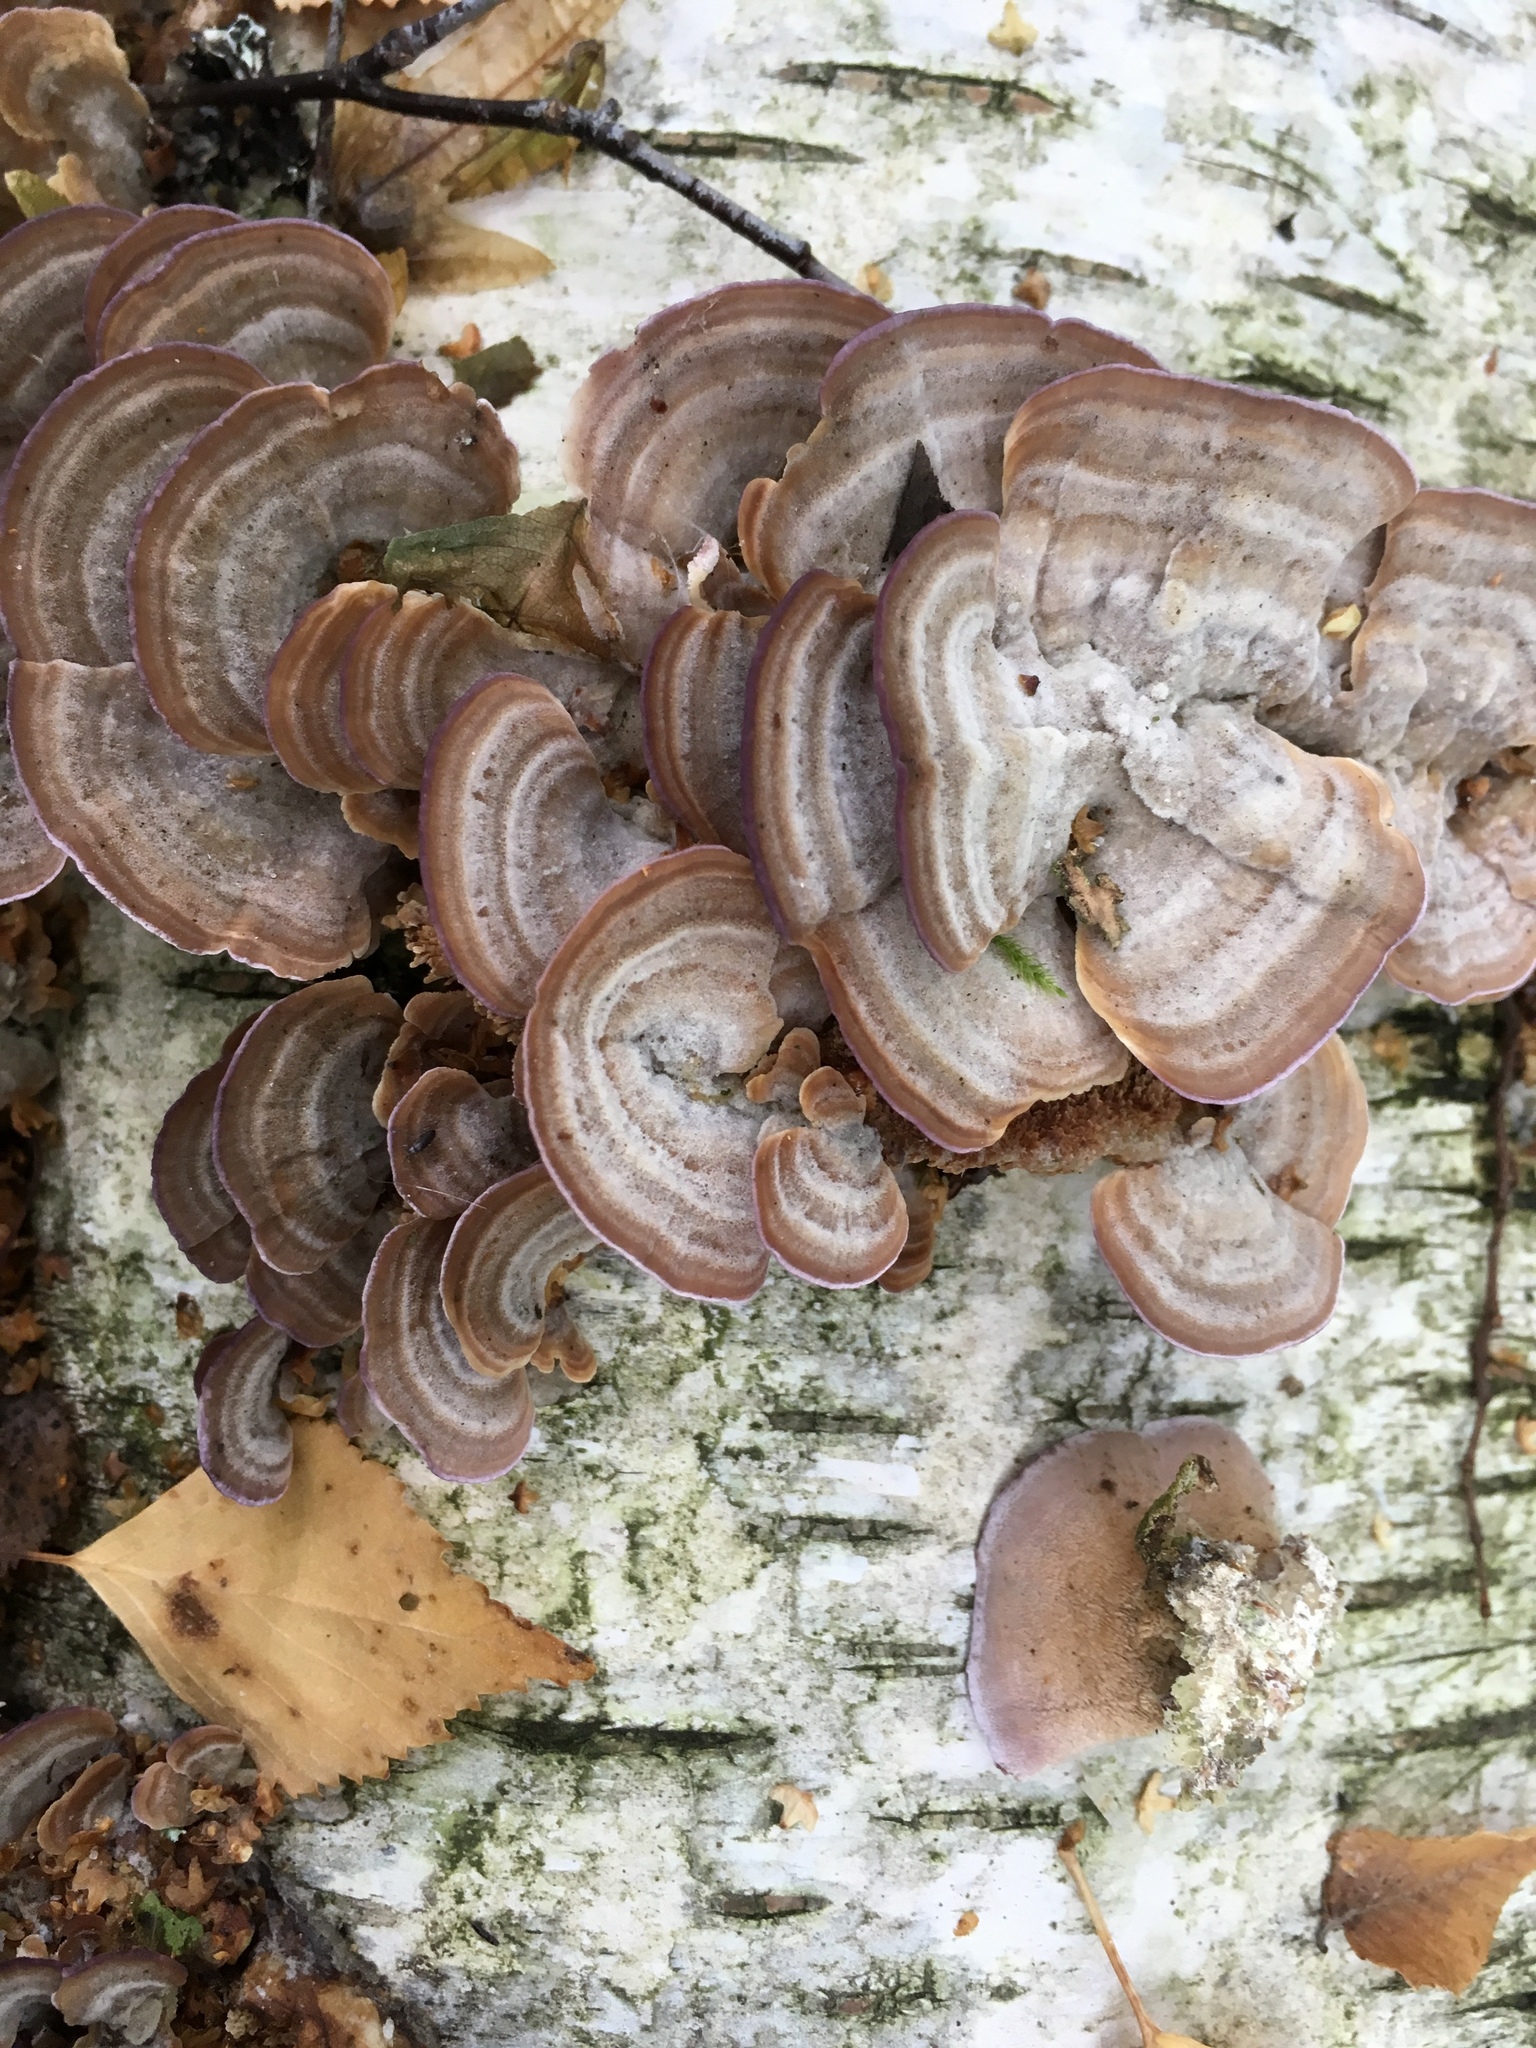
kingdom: Fungi
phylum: Basidiomycota
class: Agaricomycetes
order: Hymenochaetales
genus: Trichaptum
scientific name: Trichaptum biforme
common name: Violet-toothed polypore
